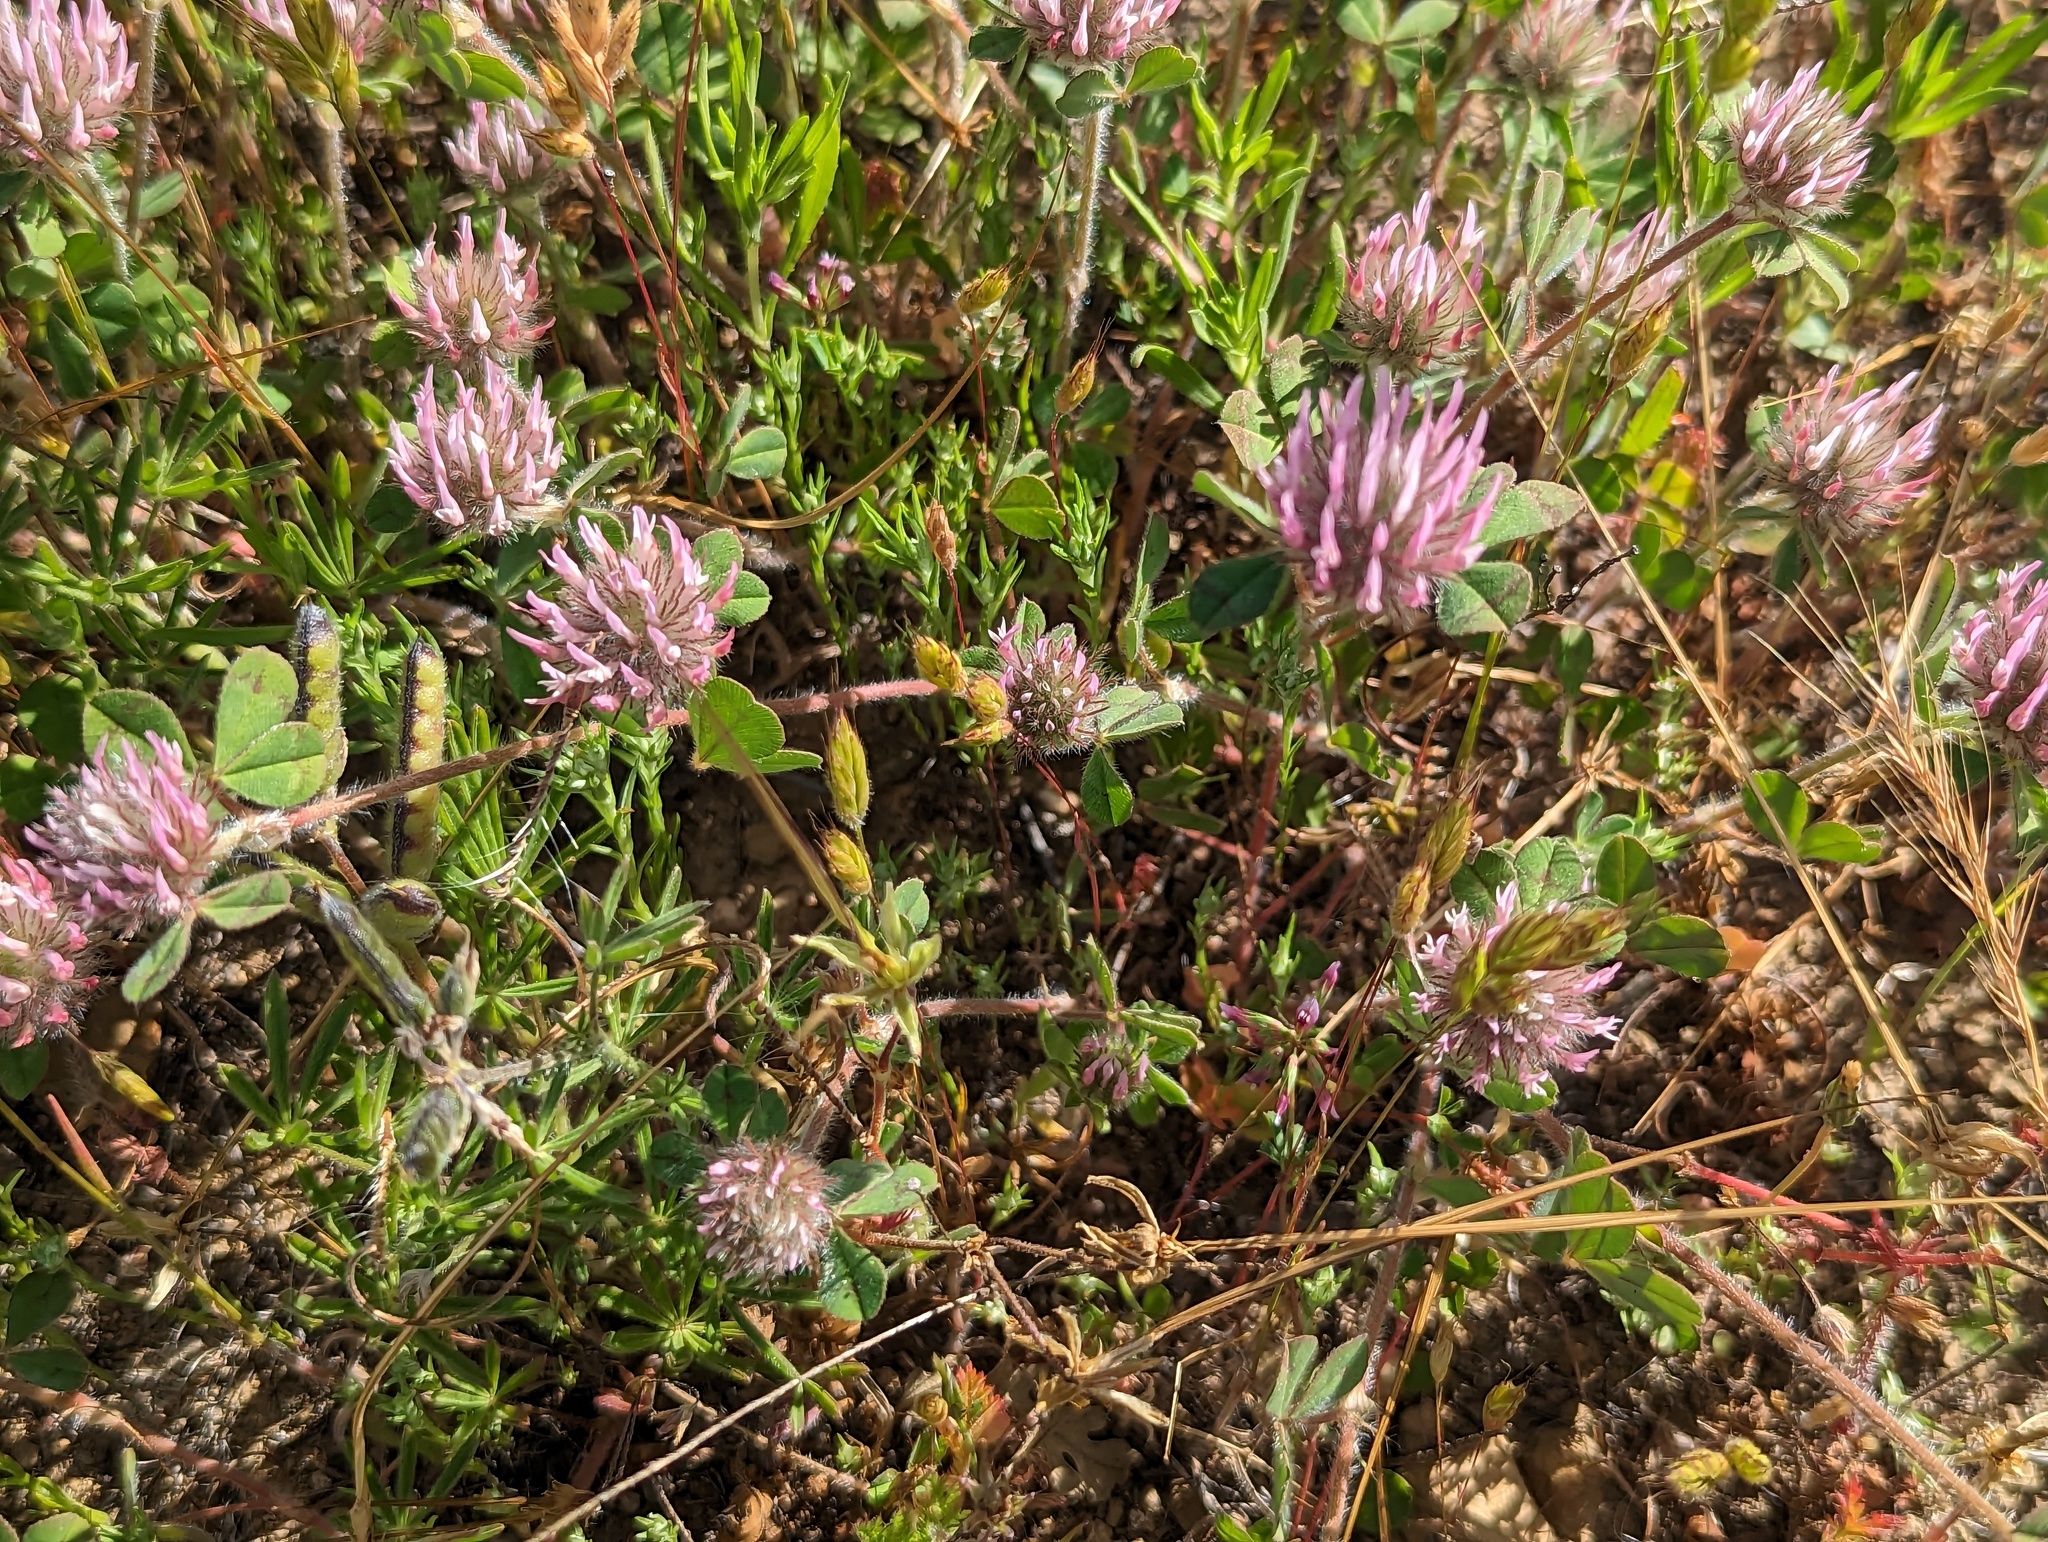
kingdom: Plantae
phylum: Tracheophyta
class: Magnoliopsida
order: Fabales
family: Fabaceae
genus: Trifolium
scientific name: Trifolium hirtum
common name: Rose clover
